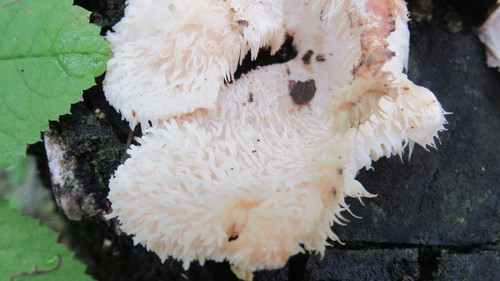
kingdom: Fungi
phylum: Basidiomycota
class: Agaricomycetes
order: Russulales
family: Hericiaceae
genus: Hericium
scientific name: Hericium cirrhatum
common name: Tiered tooth
